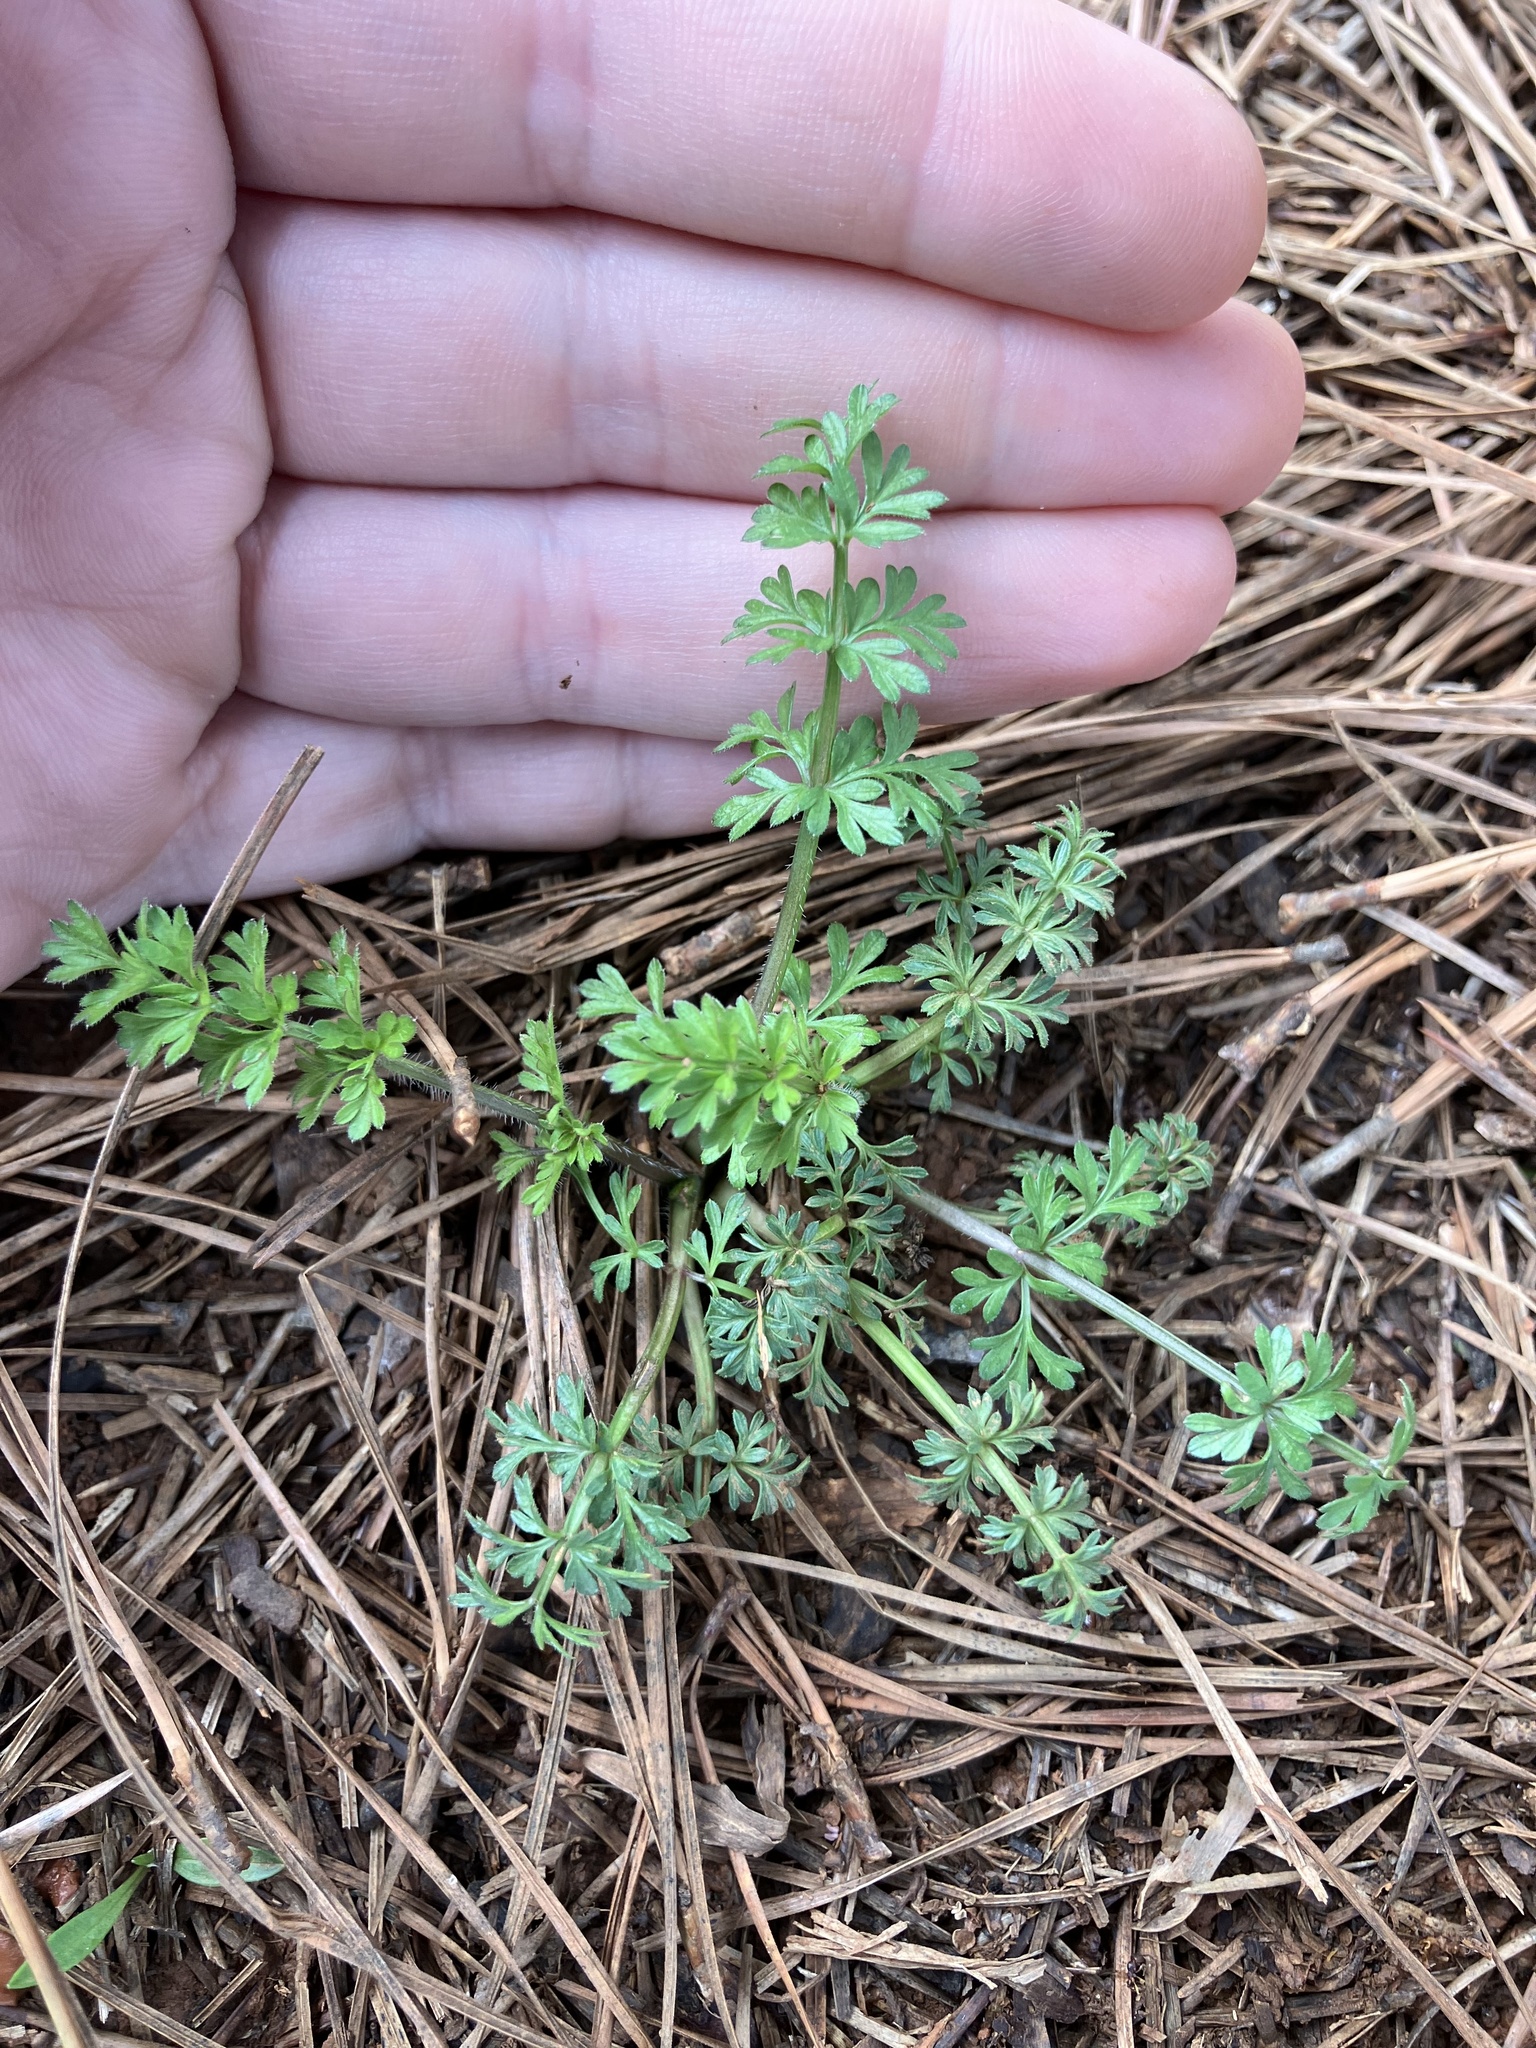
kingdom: Plantae
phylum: Tracheophyta
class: Magnoliopsida
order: Apiales
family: Apiaceae
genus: Daucus
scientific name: Daucus carota
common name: Wild carrot
